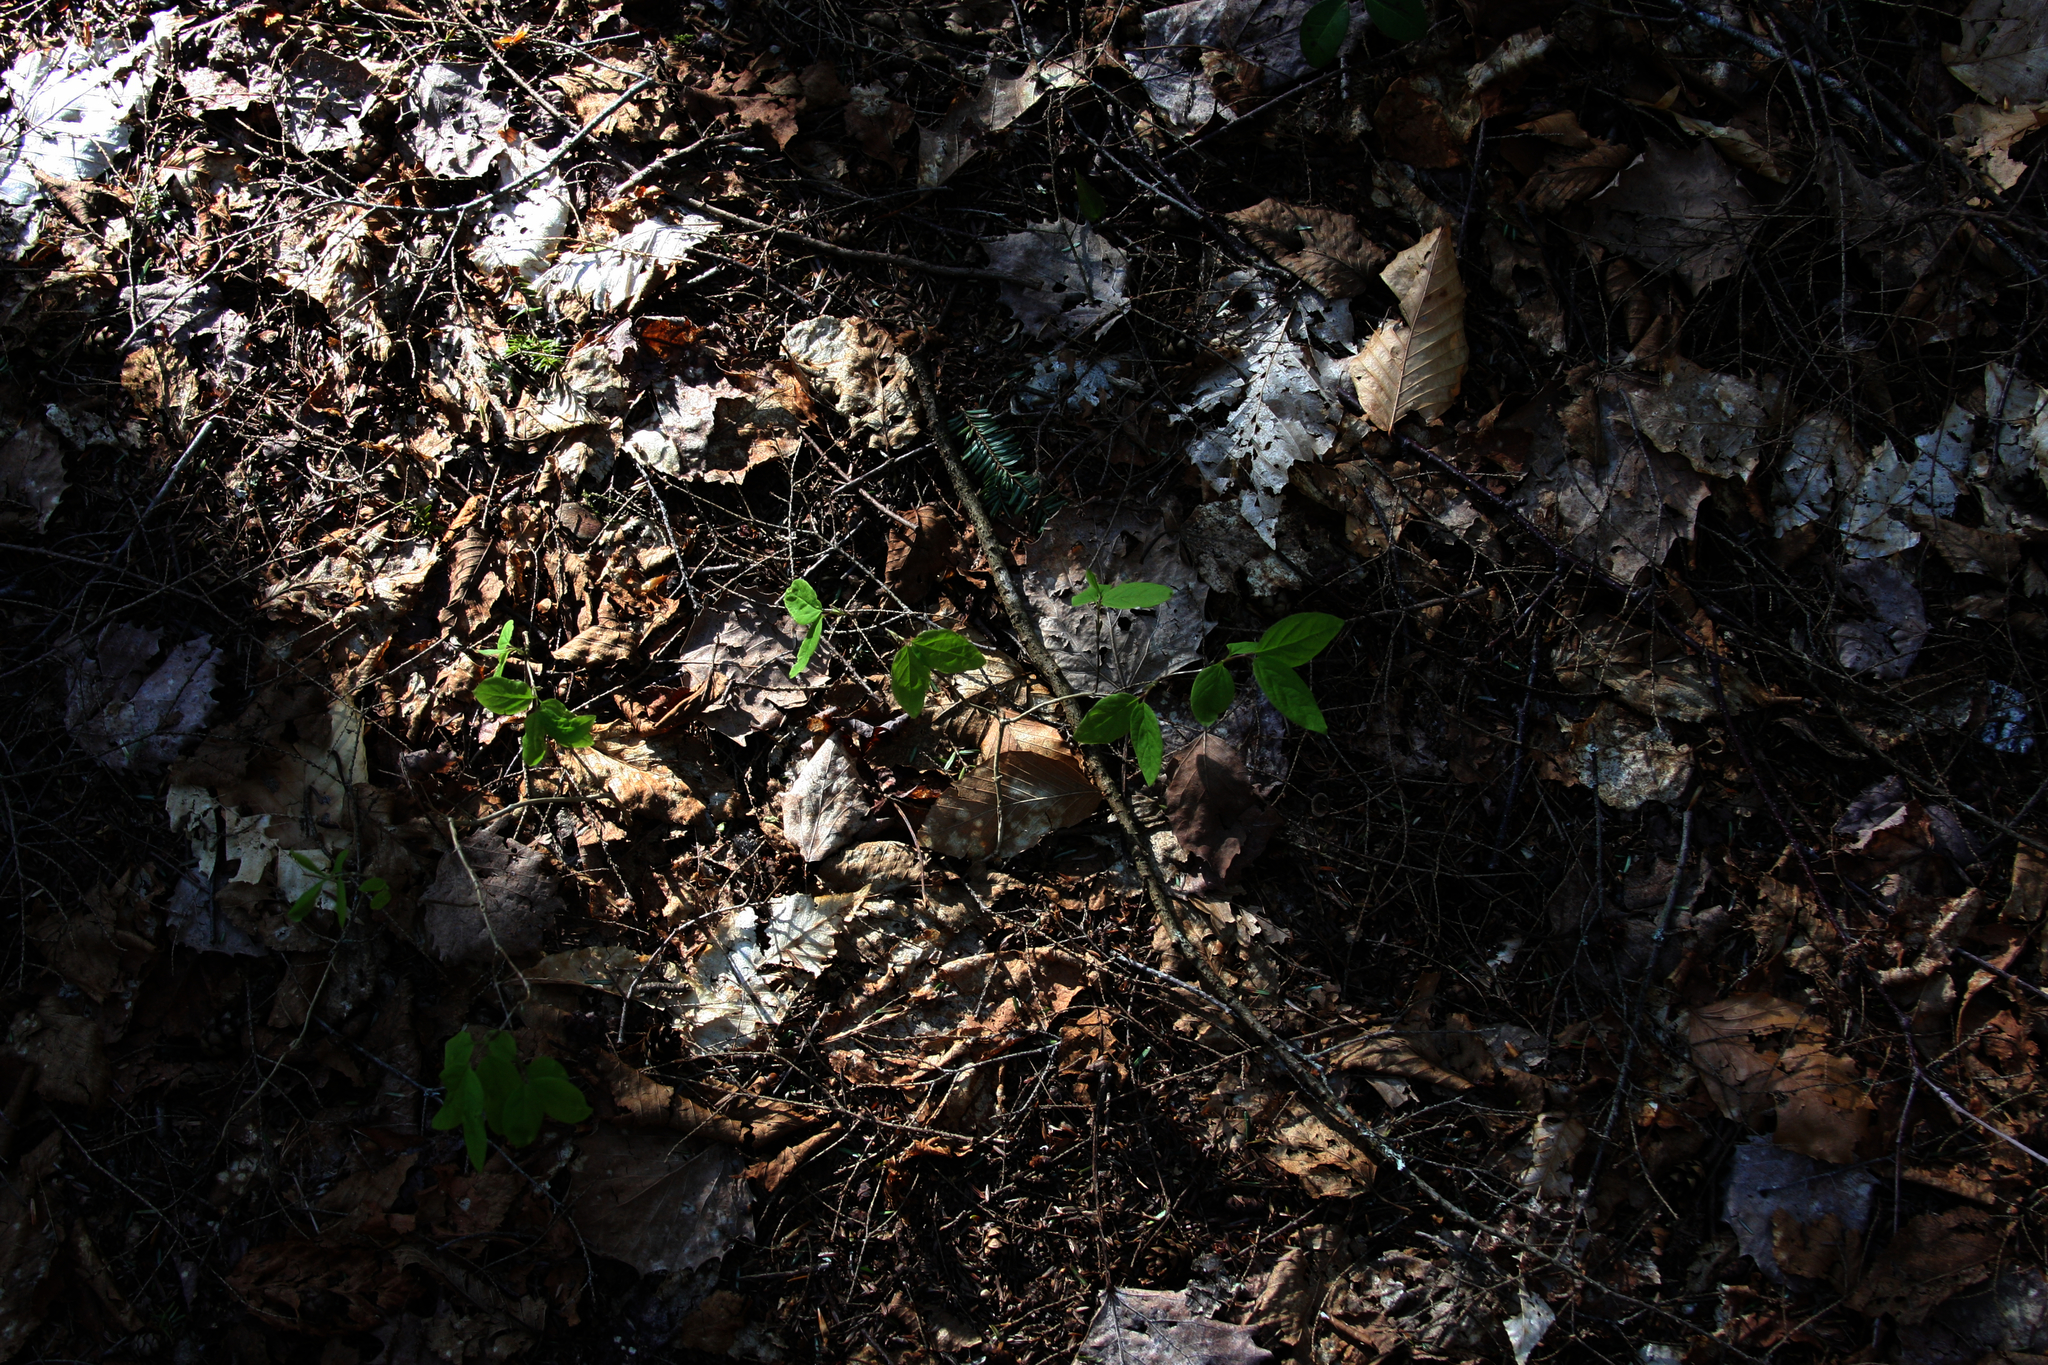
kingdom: Plantae
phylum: Tracheophyta
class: Magnoliopsida
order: Dipsacales
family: Caprifoliaceae
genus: Lonicera
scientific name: Lonicera canadensis
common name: American fly-honeysuckle
